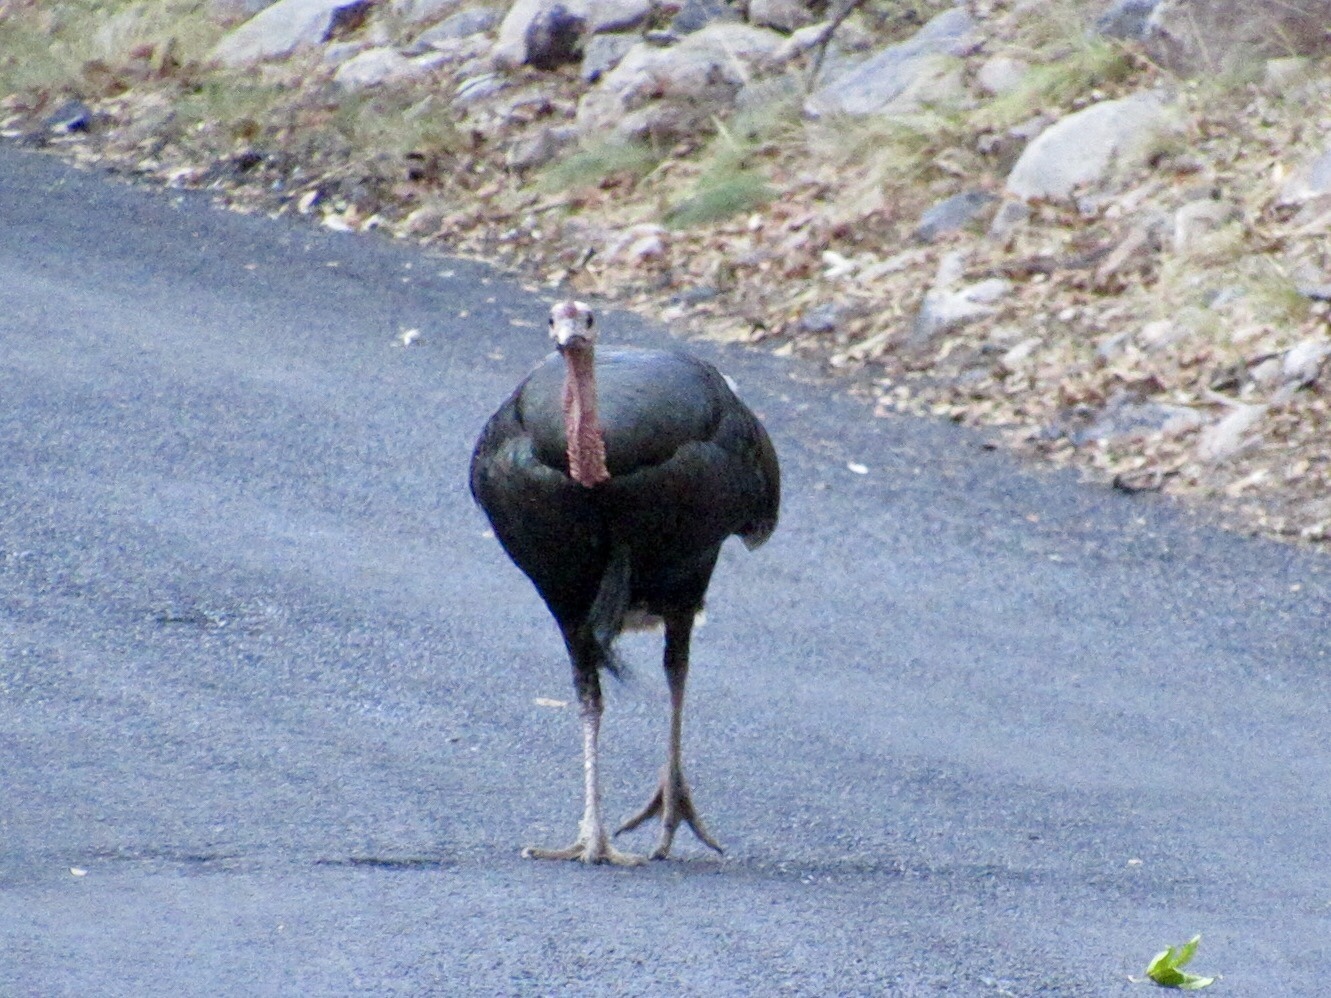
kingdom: Animalia
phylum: Chordata
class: Aves
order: Galliformes
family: Phasianidae
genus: Meleagris
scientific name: Meleagris gallopavo
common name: Wild turkey
